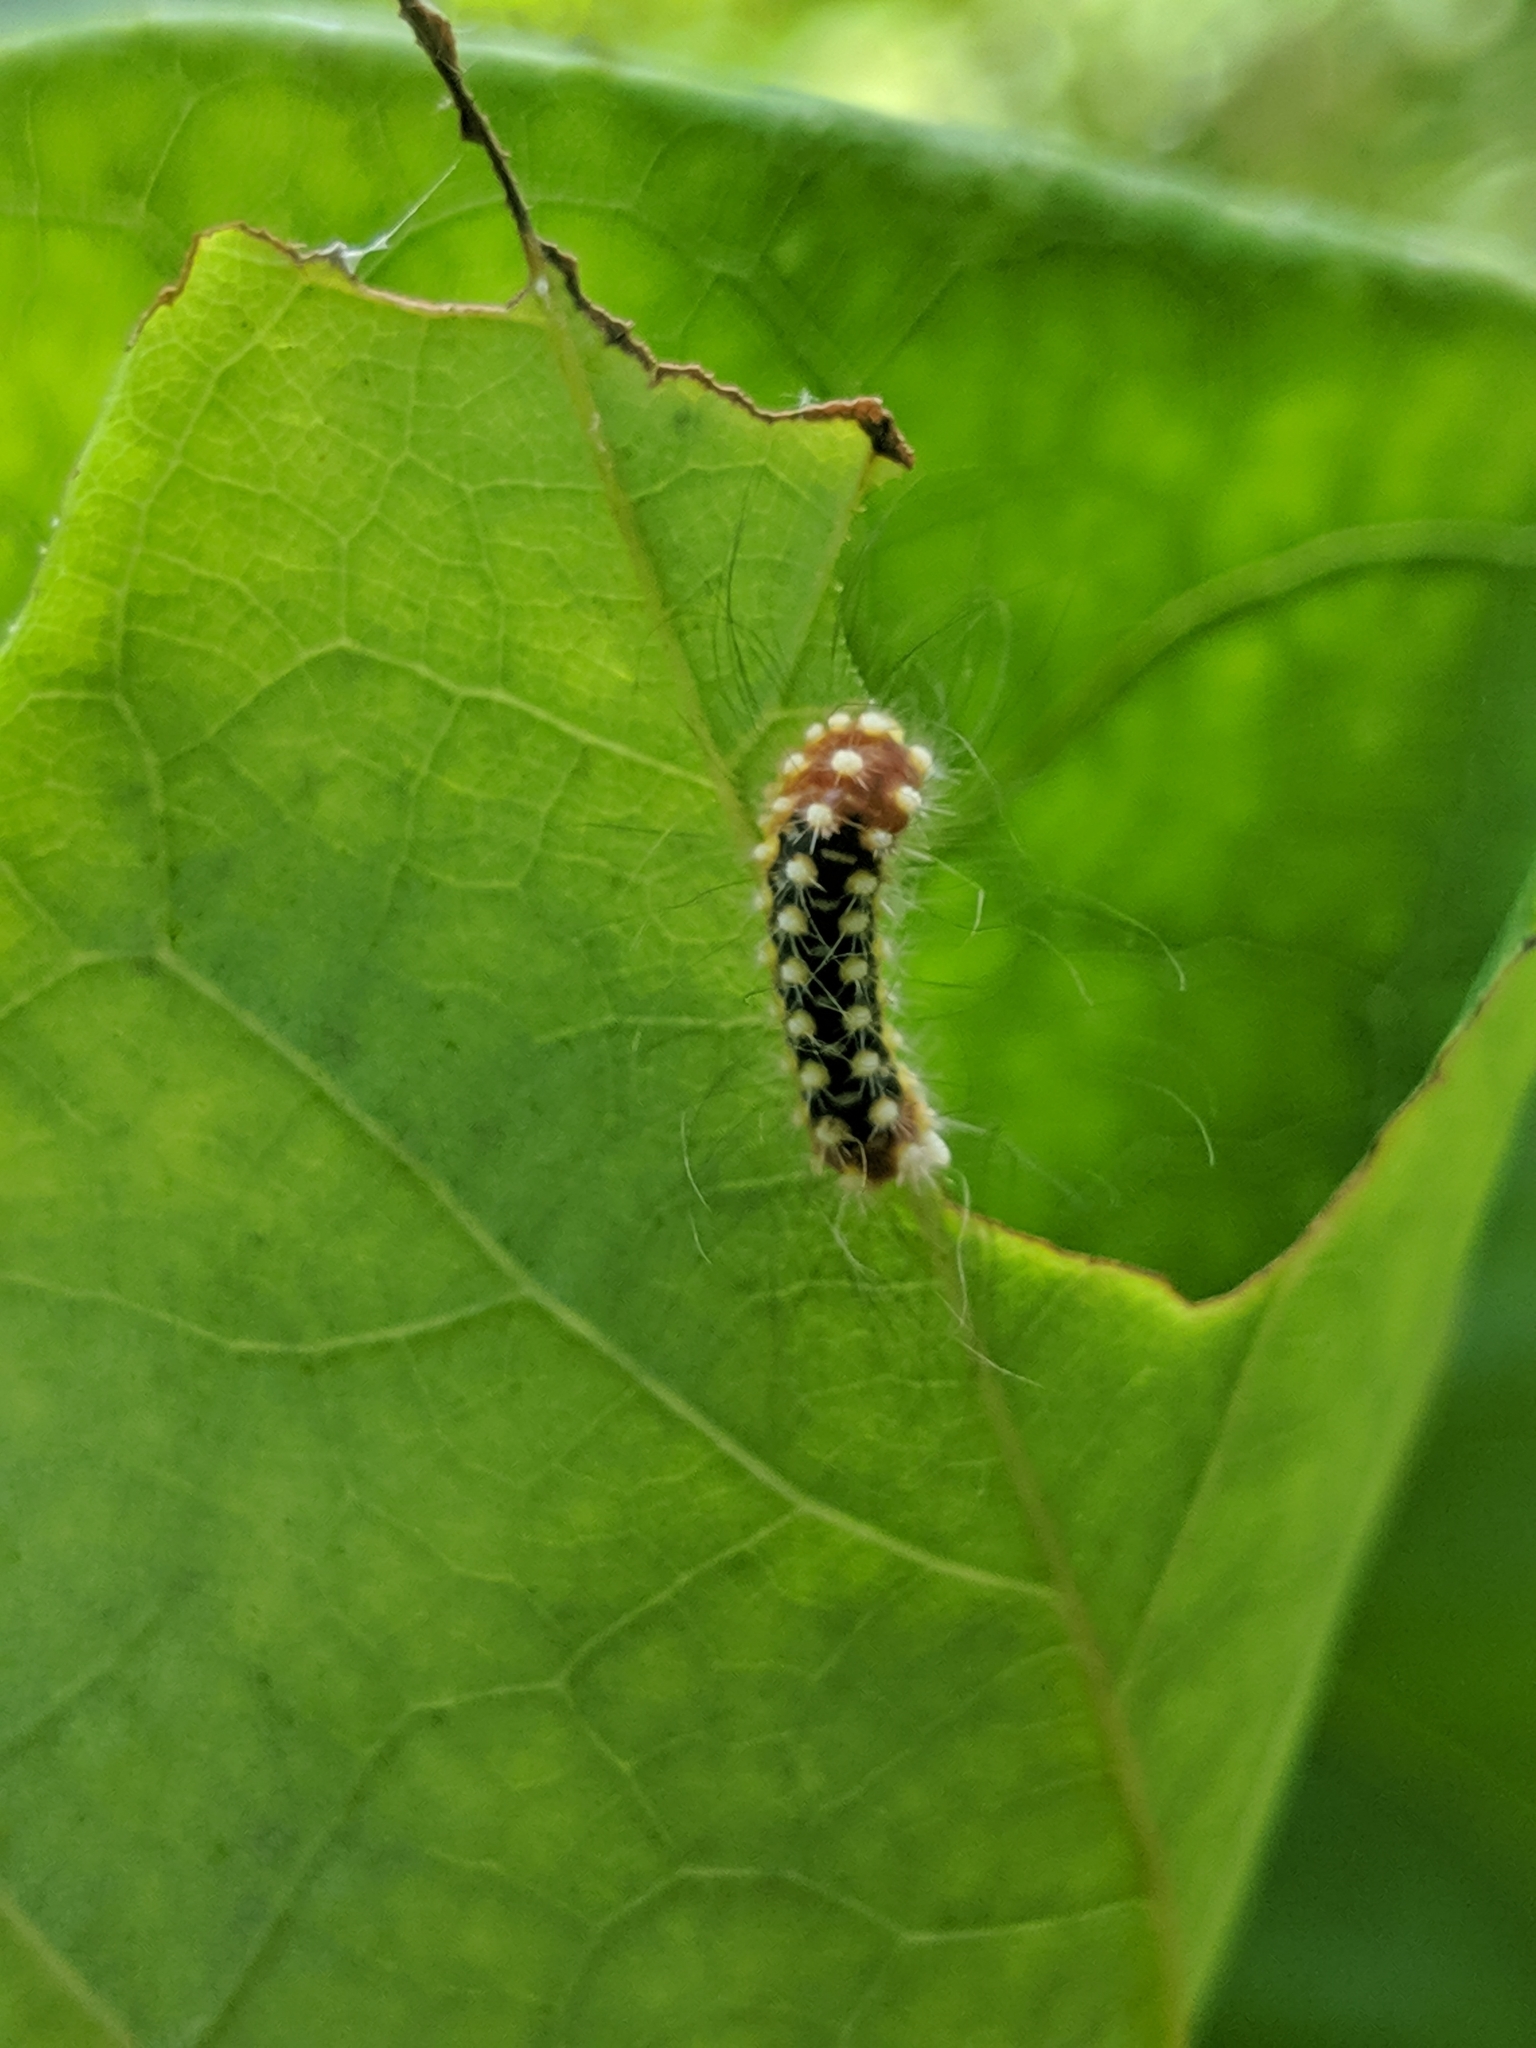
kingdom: Animalia
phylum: Arthropoda
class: Insecta
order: Lepidoptera
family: Megalopygidae
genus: Norape
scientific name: Norape cretata
